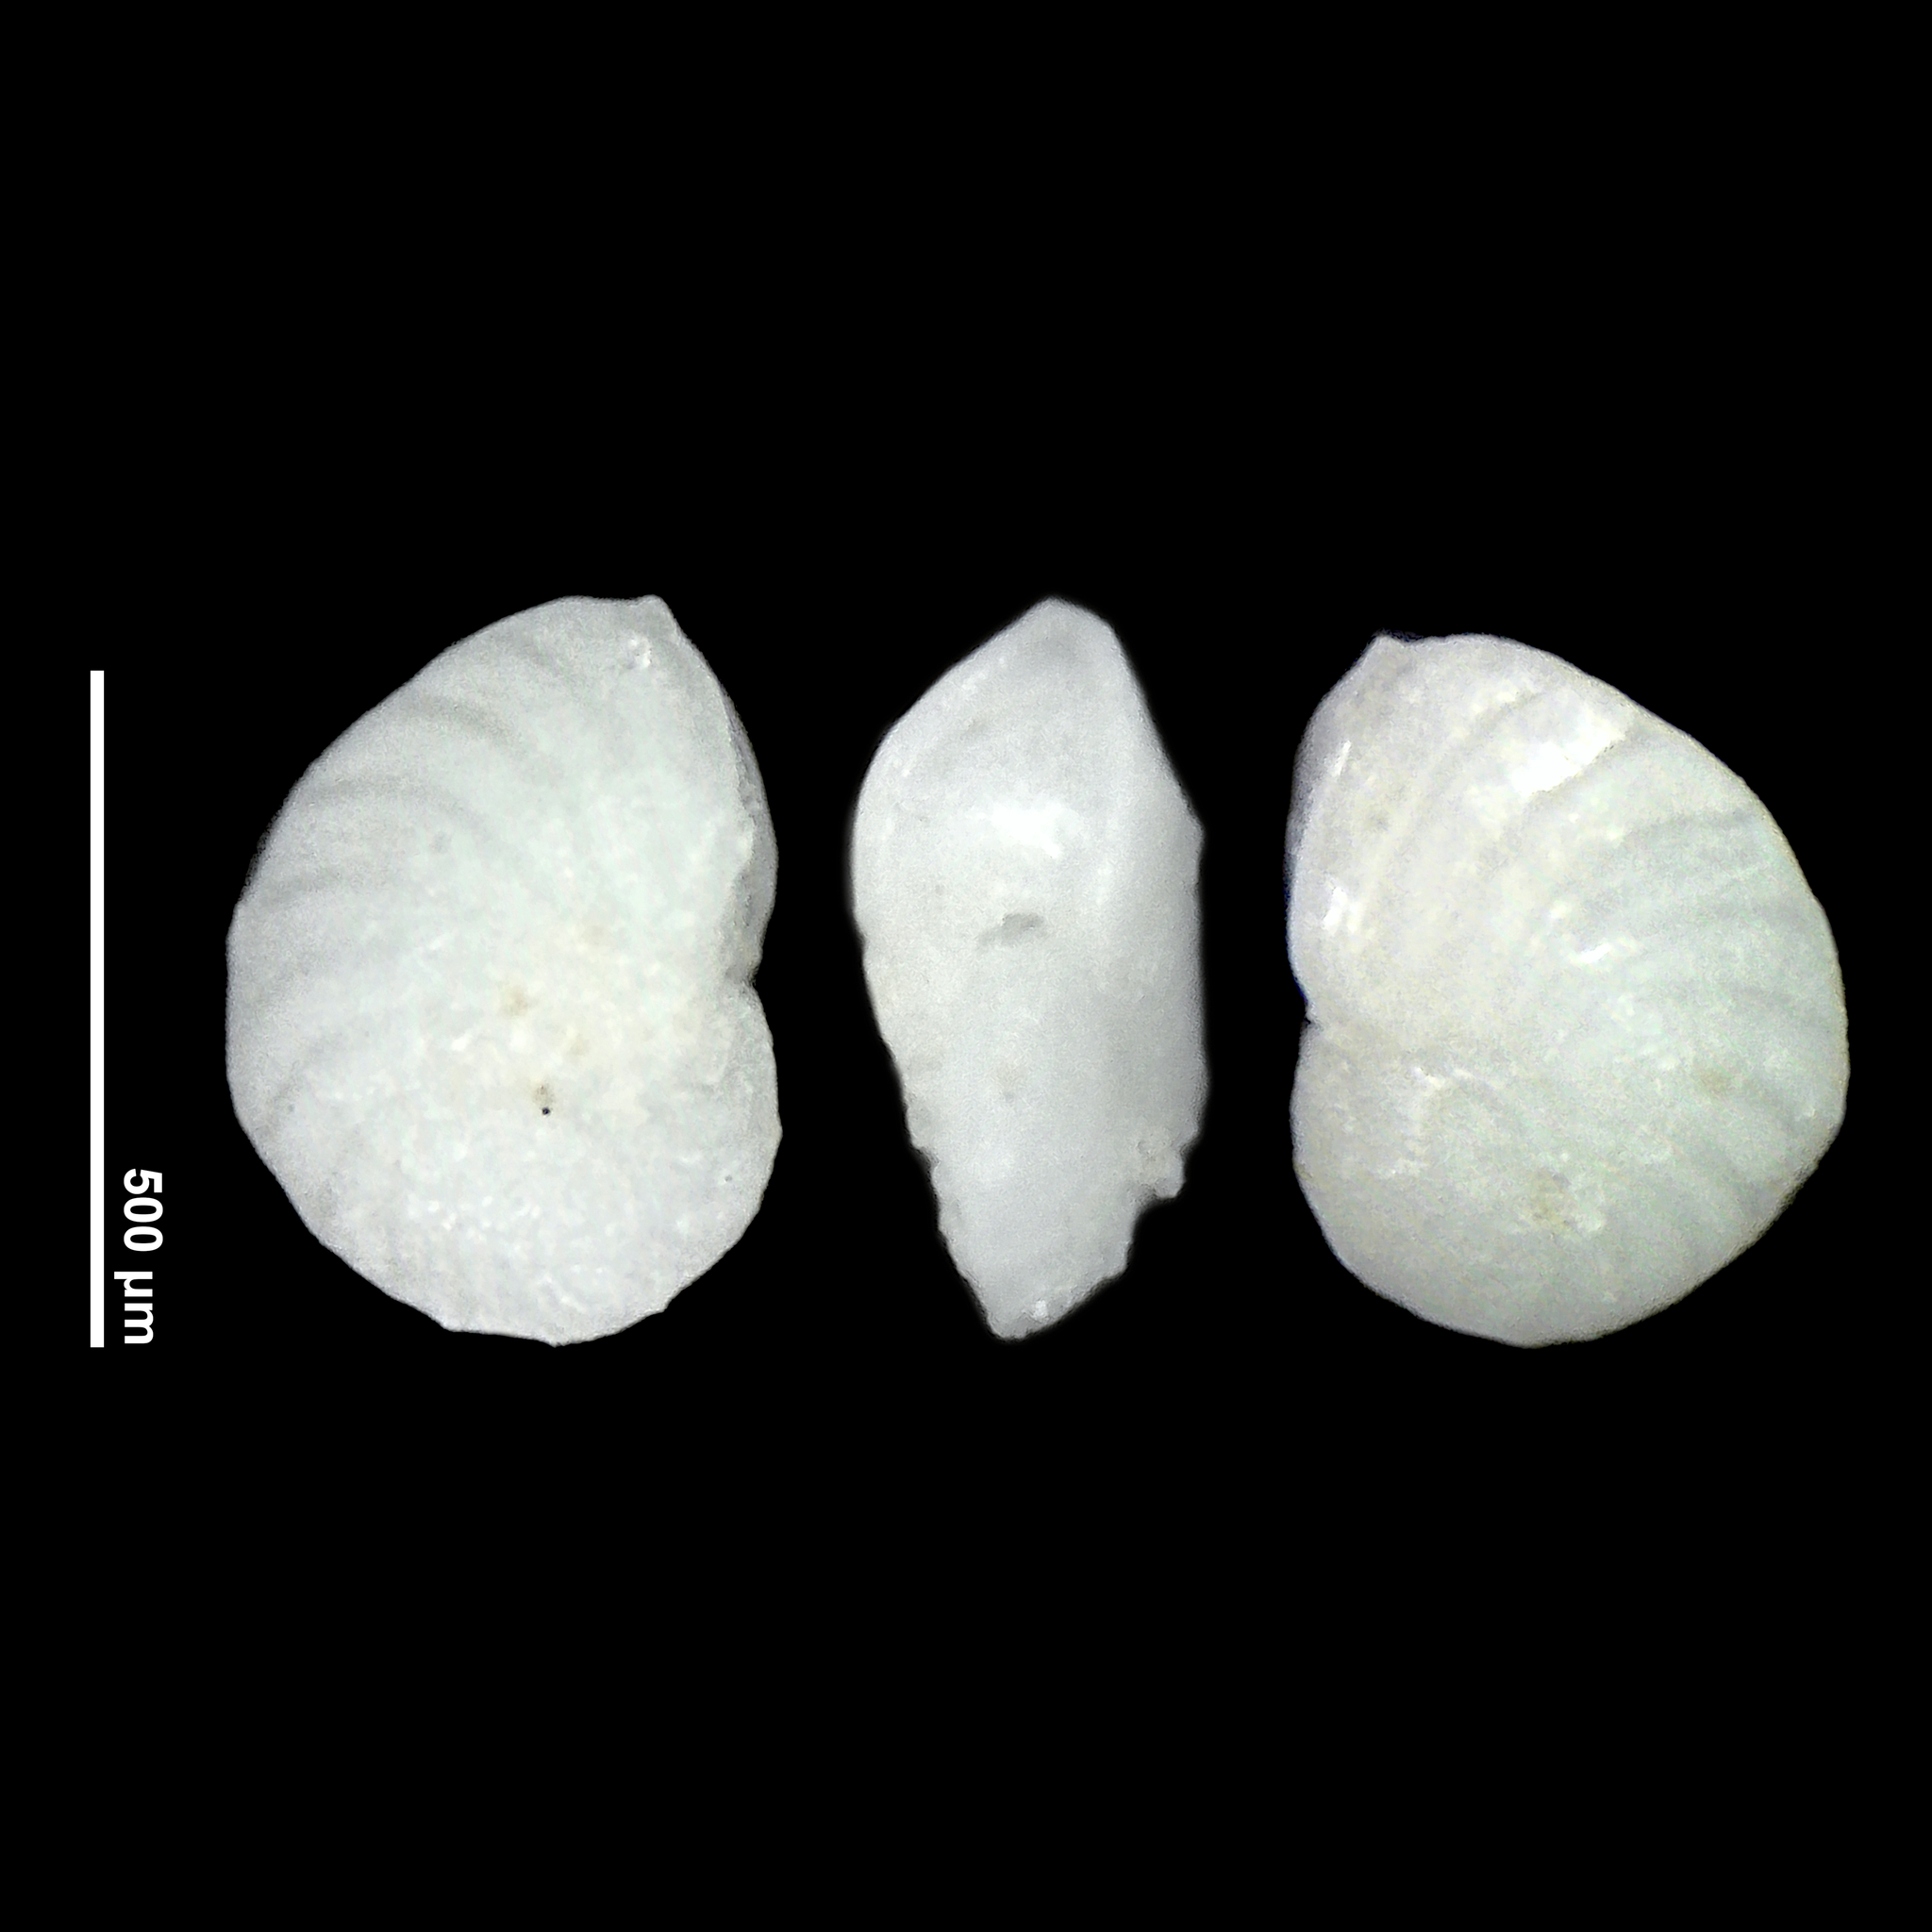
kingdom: Chromista
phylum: Foraminifera
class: Globothalamea
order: Rotaliida
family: Nonionidae
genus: Zeaflorilus
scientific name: Zeaflorilus parri
